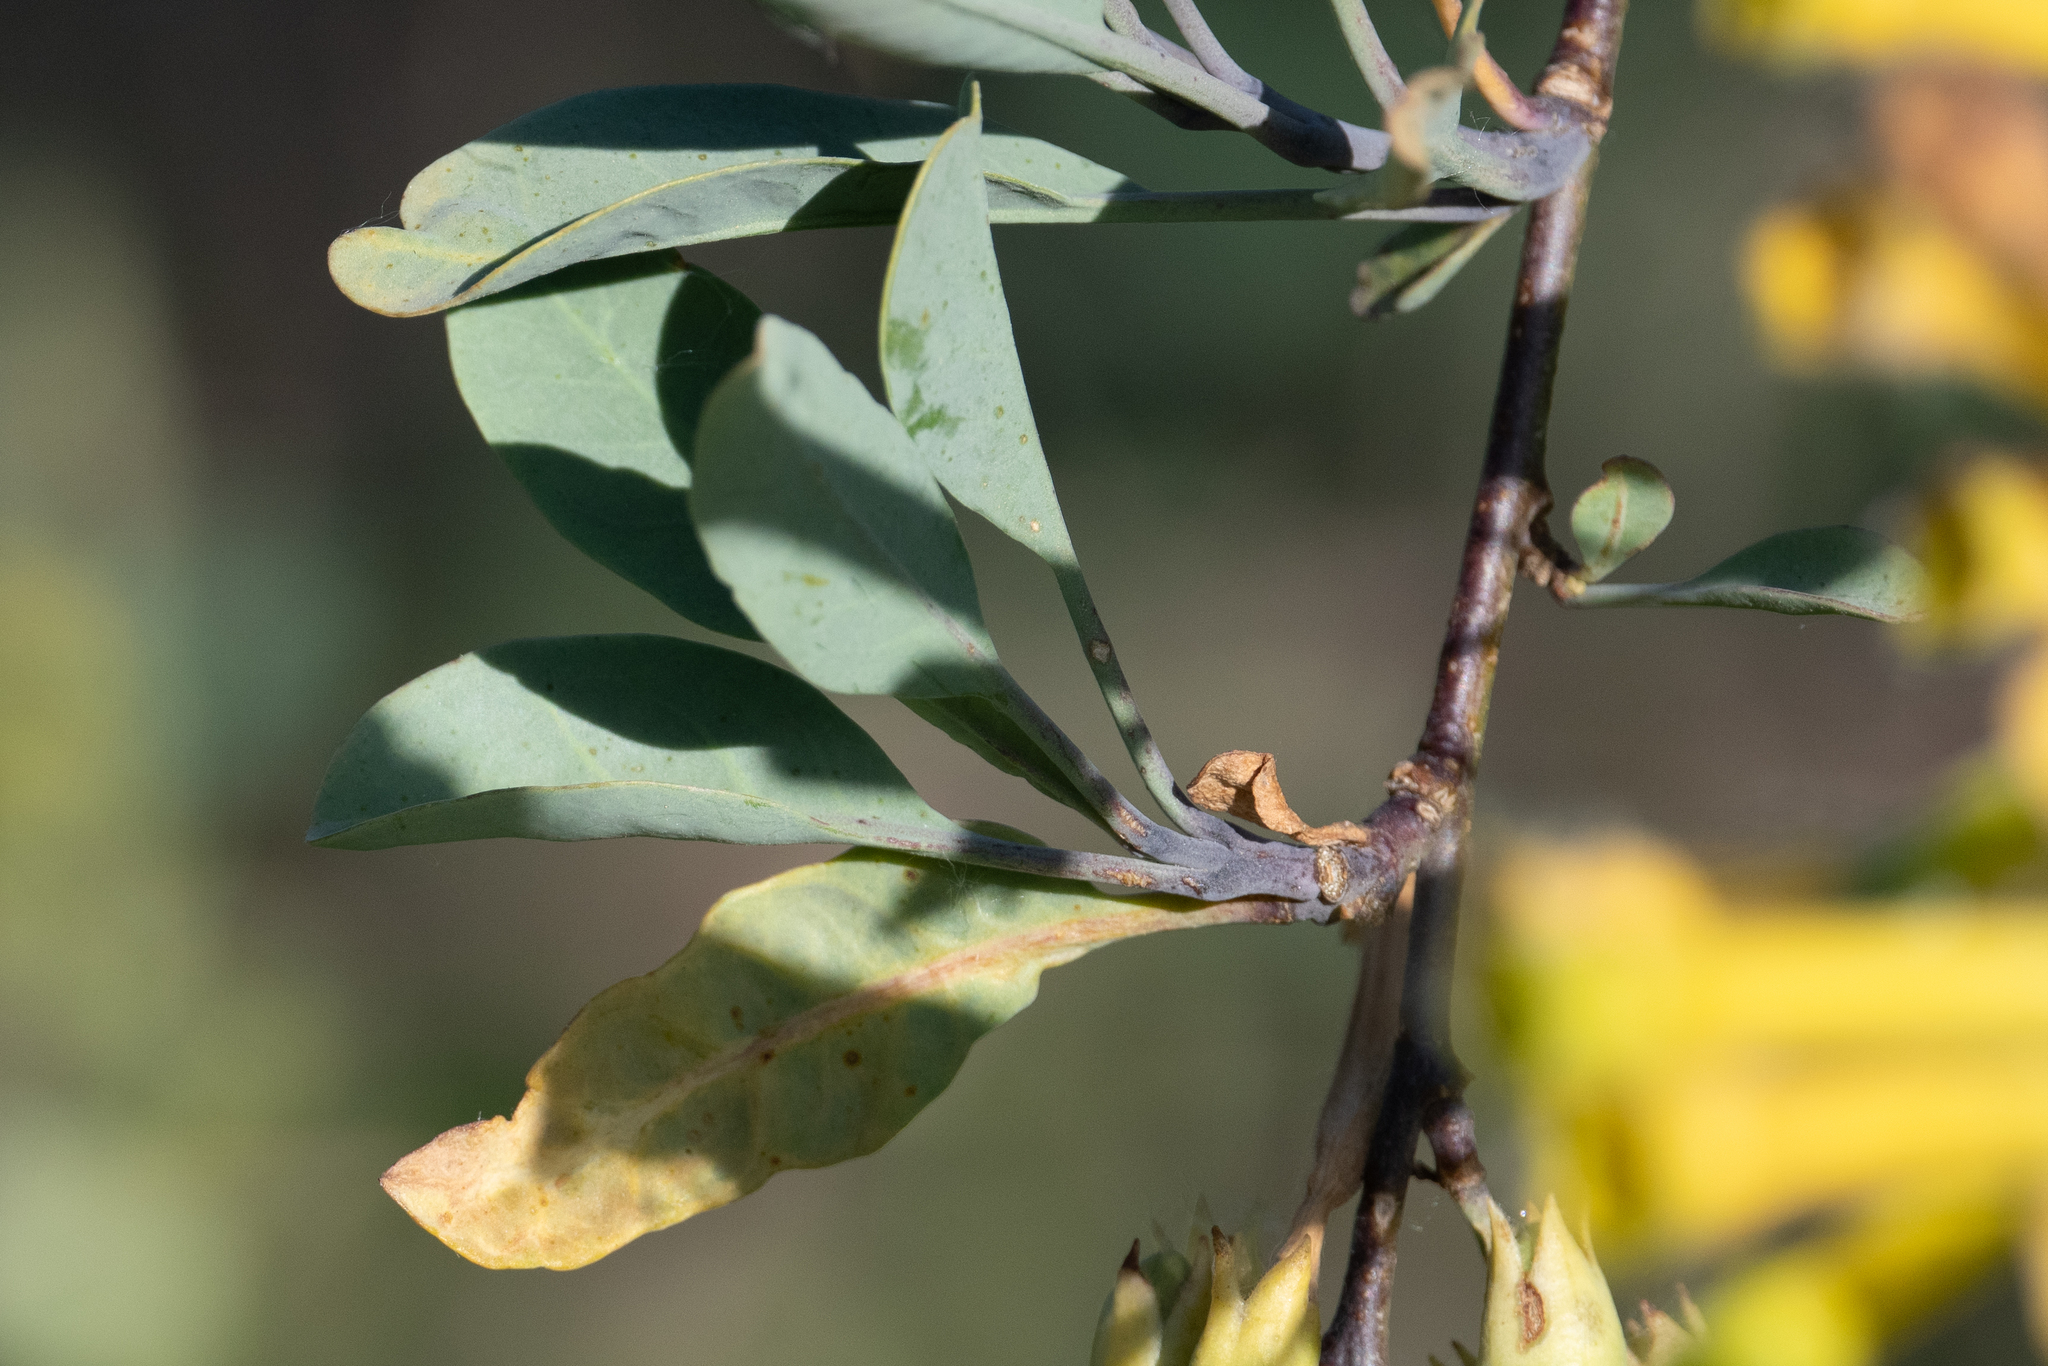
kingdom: Plantae
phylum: Tracheophyta
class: Magnoliopsida
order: Solanales
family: Solanaceae
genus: Nicotiana
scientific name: Nicotiana glauca
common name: Tree tobacco
